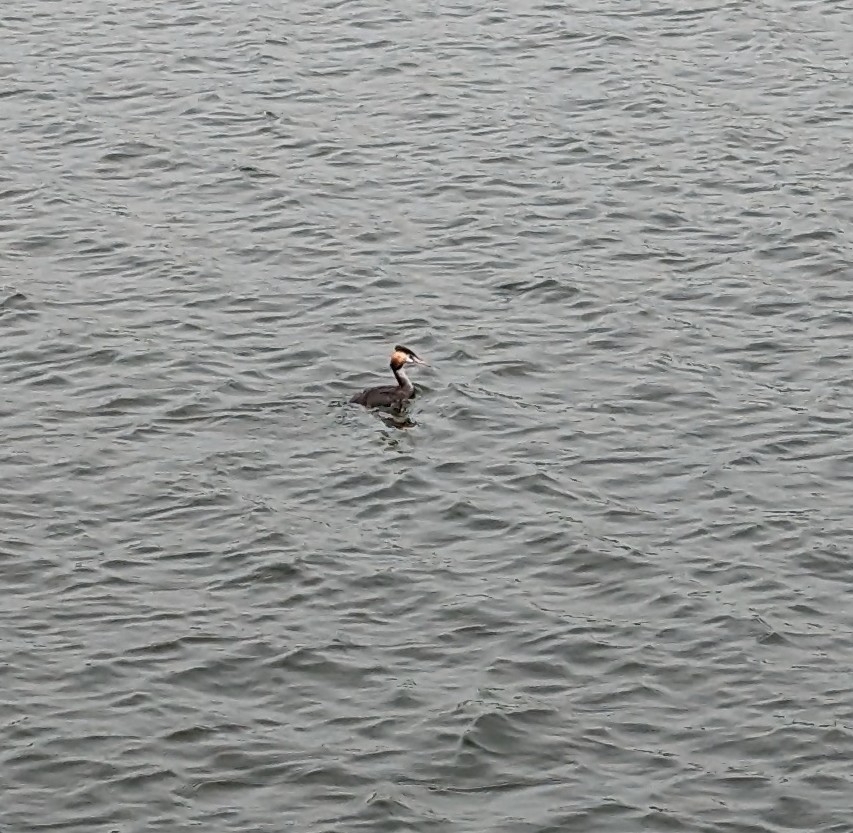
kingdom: Animalia
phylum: Chordata
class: Aves
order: Podicipediformes
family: Podicipedidae
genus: Podiceps
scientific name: Podiceps cristatus
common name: Great crested grebe
